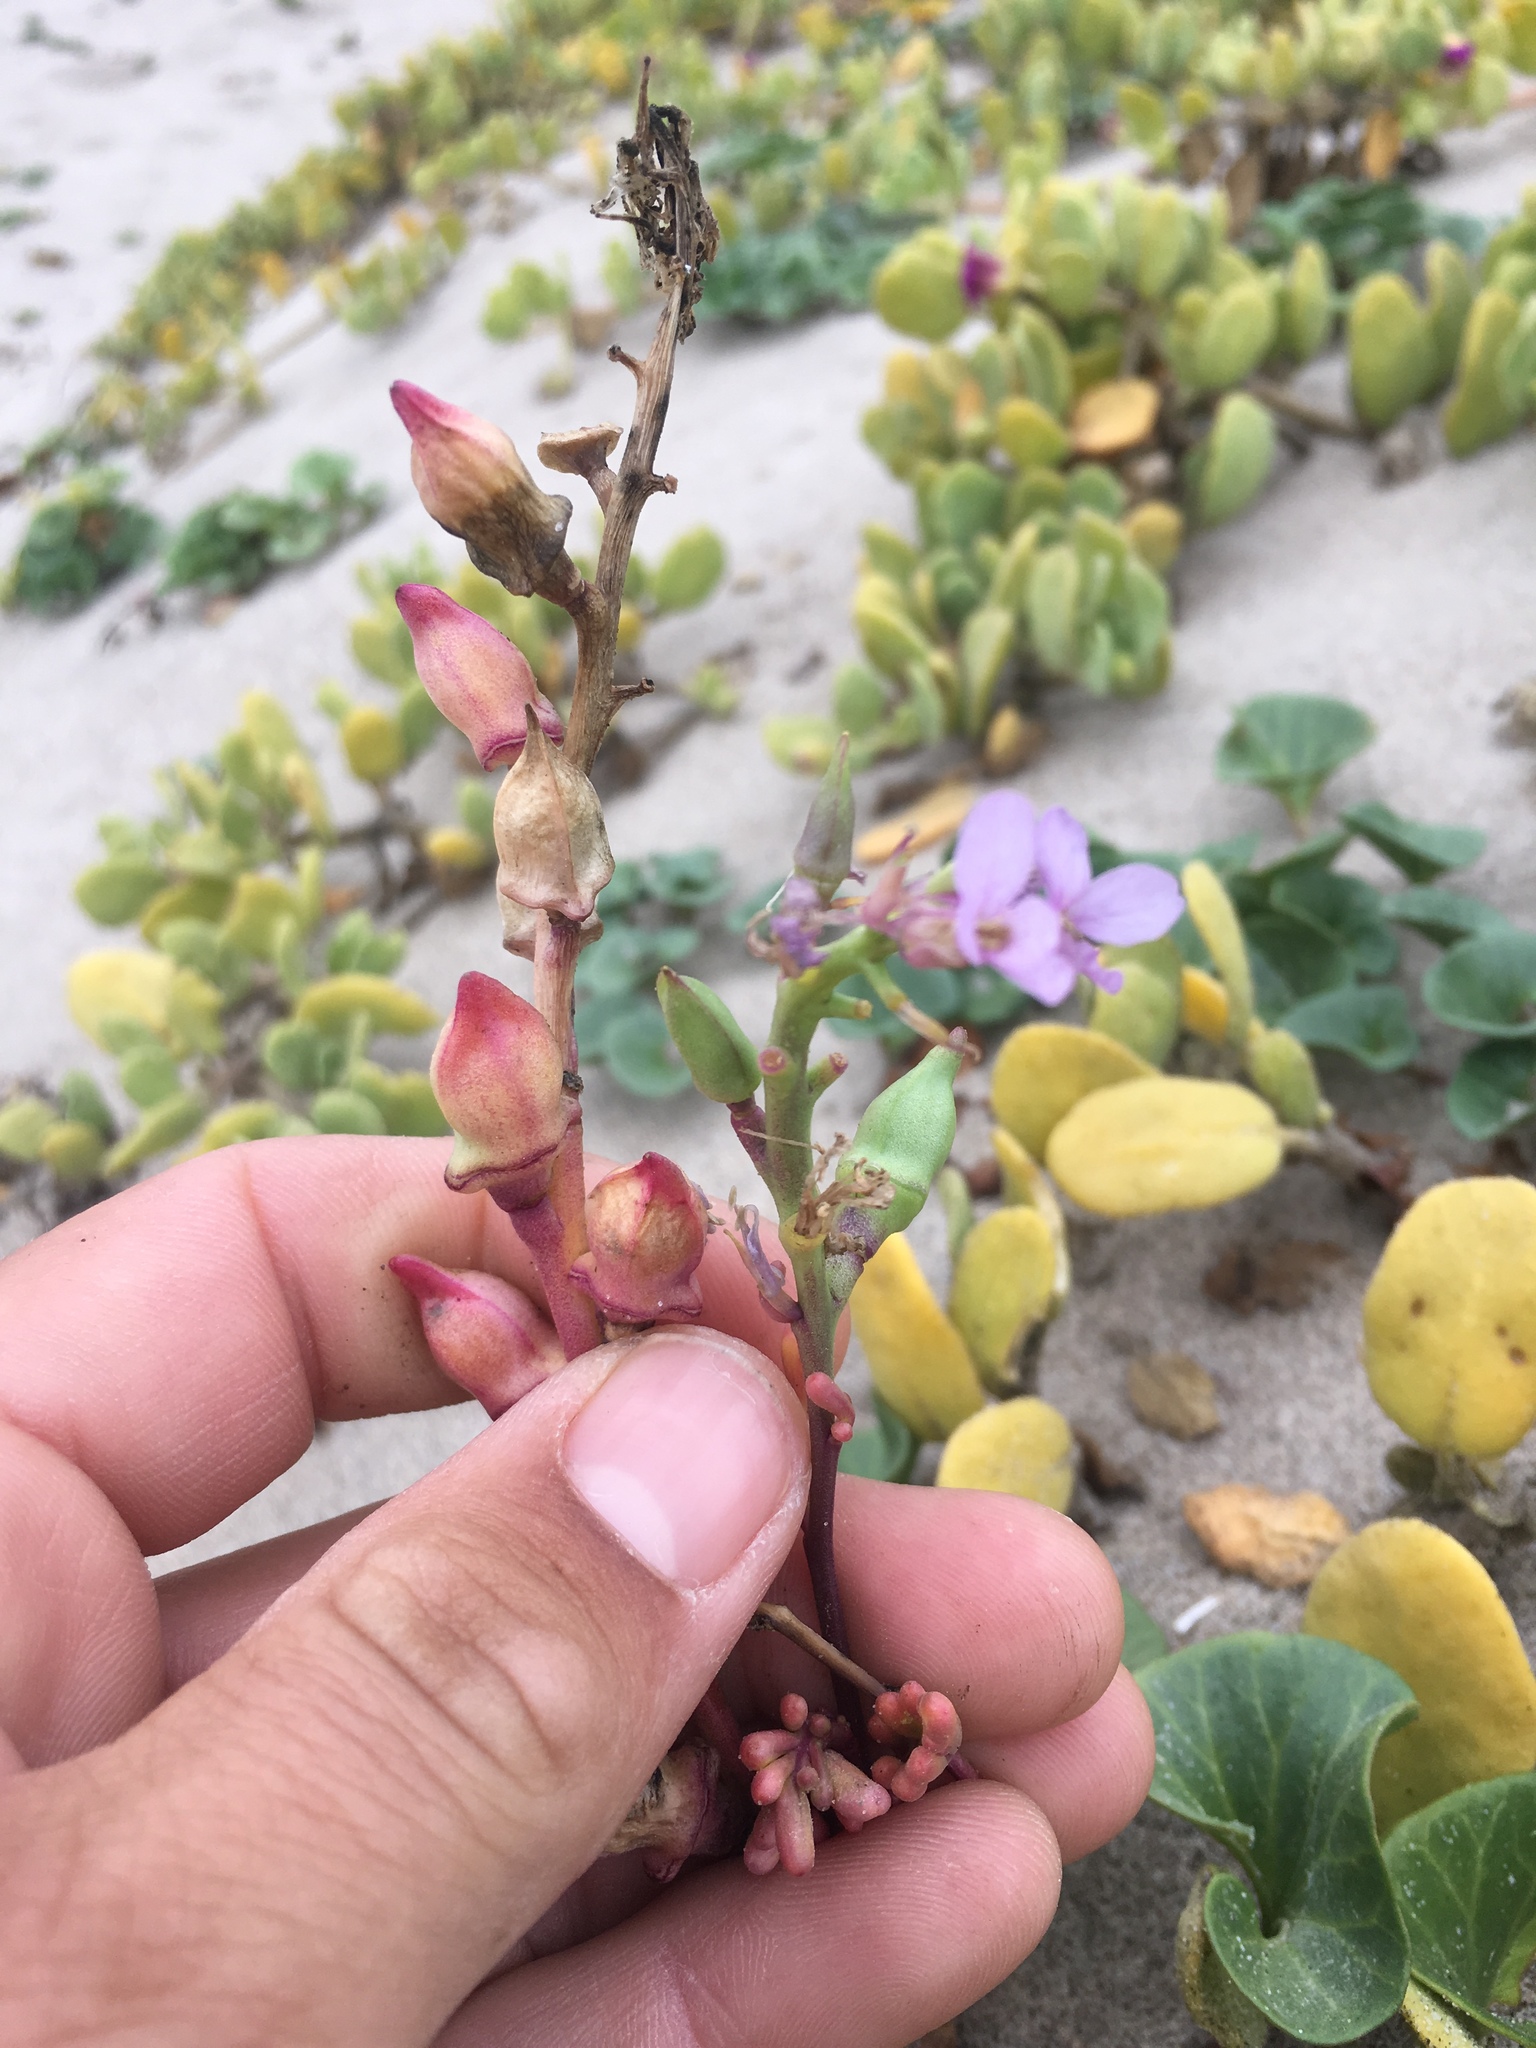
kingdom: Plantae
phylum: Tracheophyta
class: Magnoliopsida
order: Brassicales
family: Brassicaceae
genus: Cakile
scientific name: Cakile maritima
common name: Sea rocket
